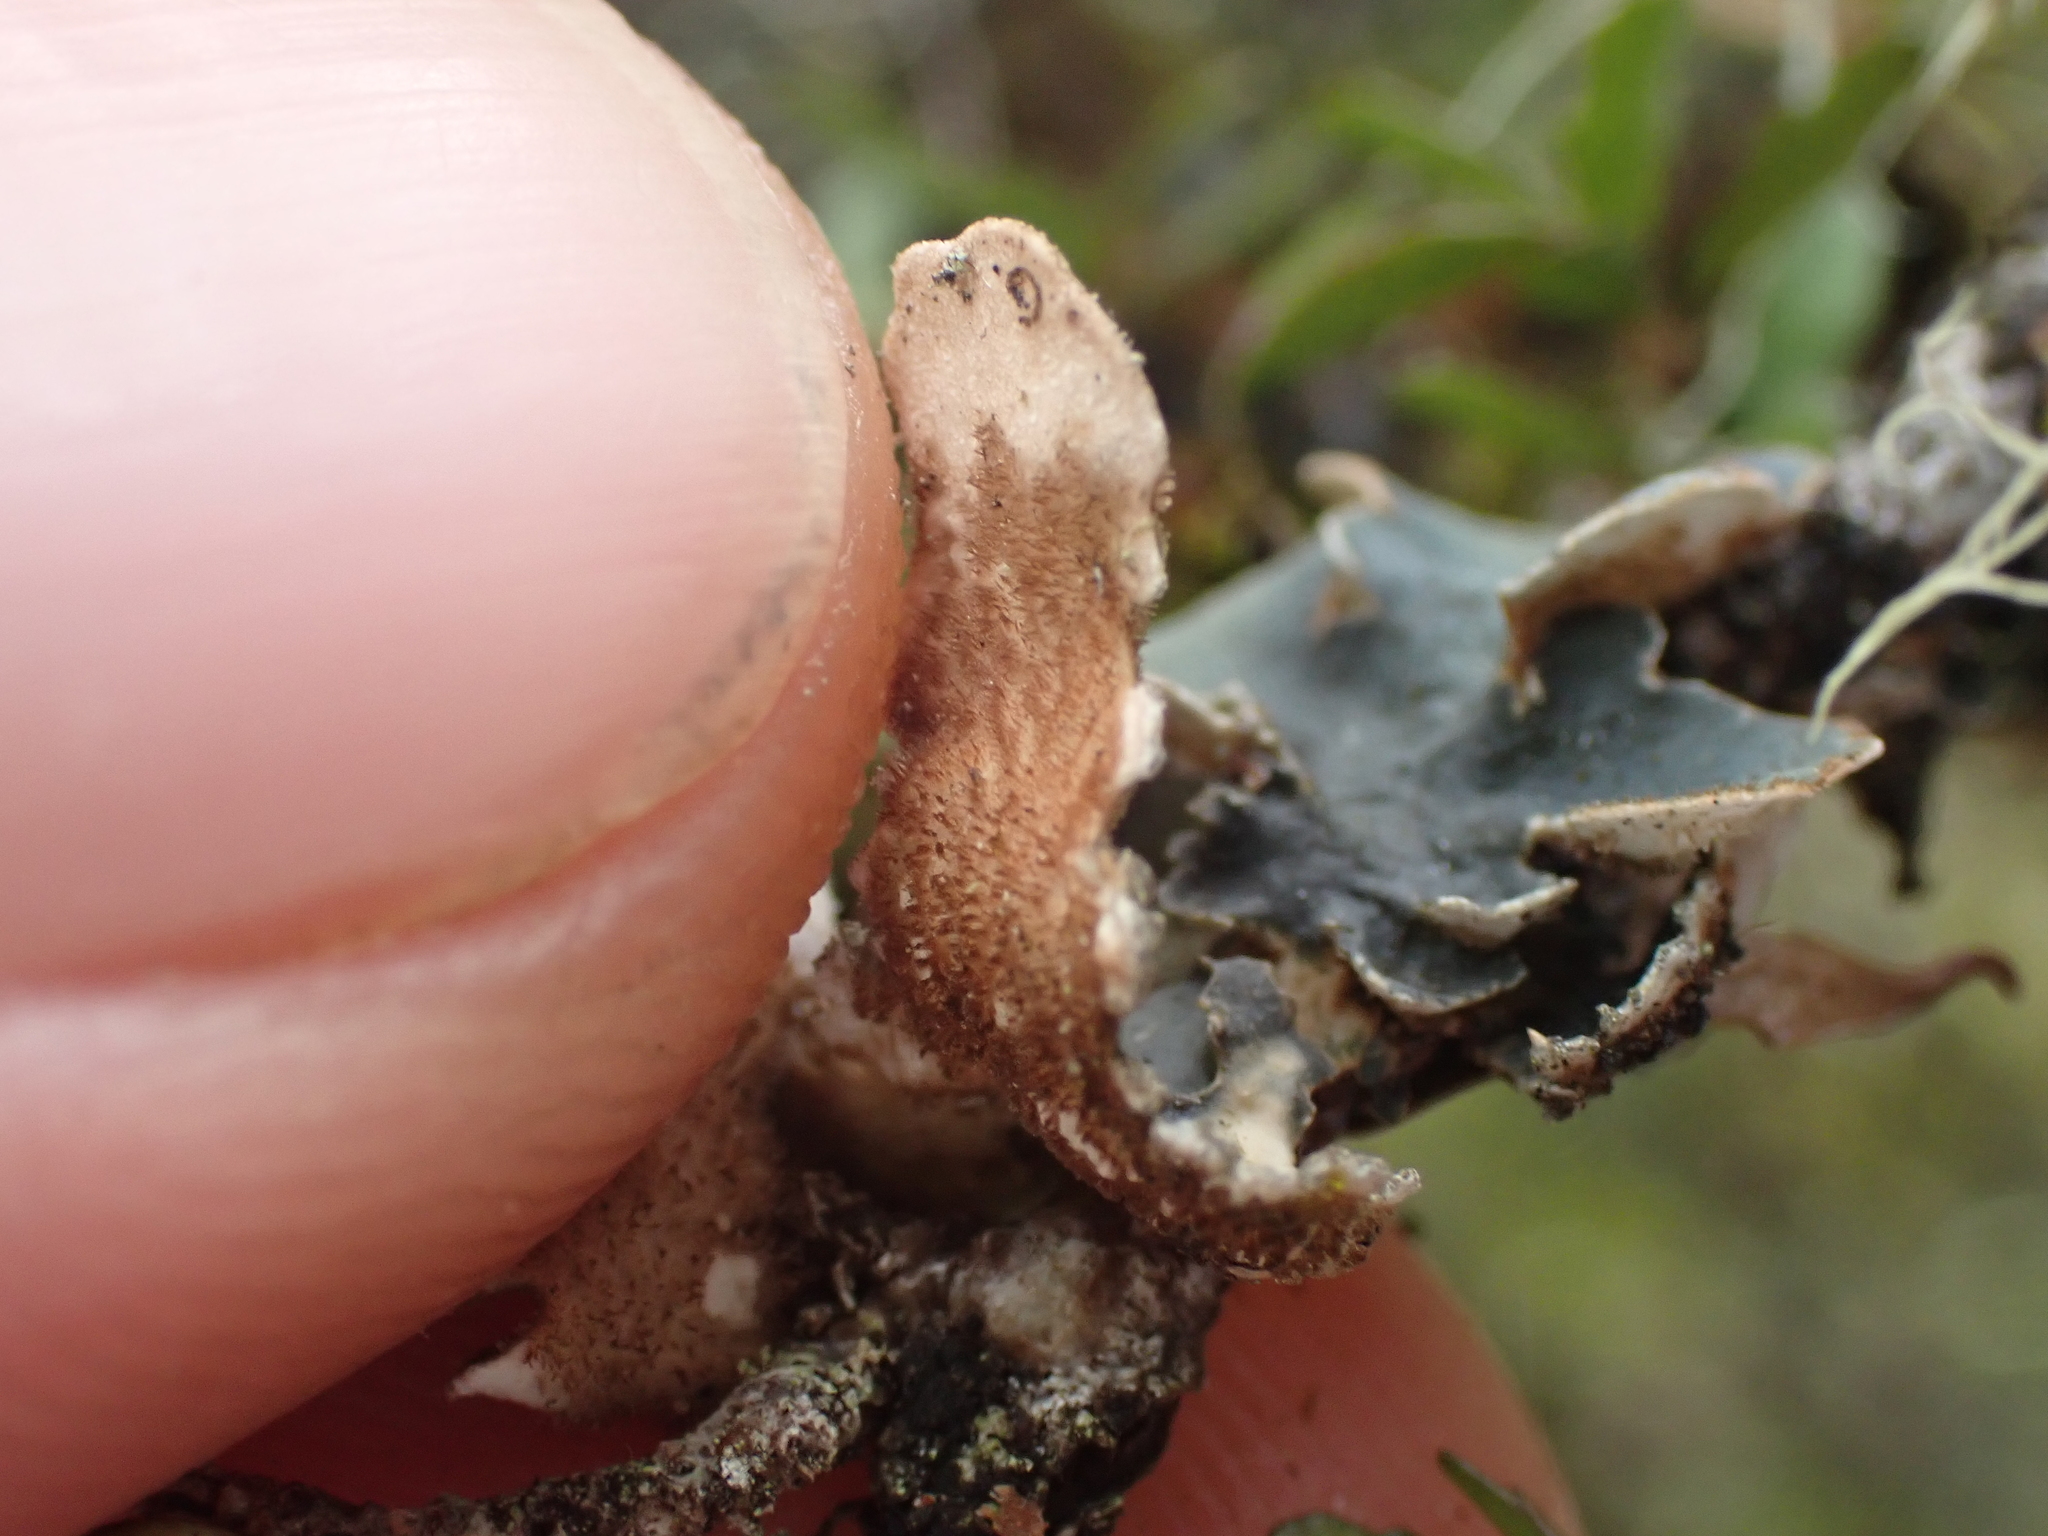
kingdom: Fungi
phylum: Ascomycota
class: Lecanoromycetes
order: Peltigerales
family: Lobariaceae
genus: Lobarina
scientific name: Lobarina scrobiculata
